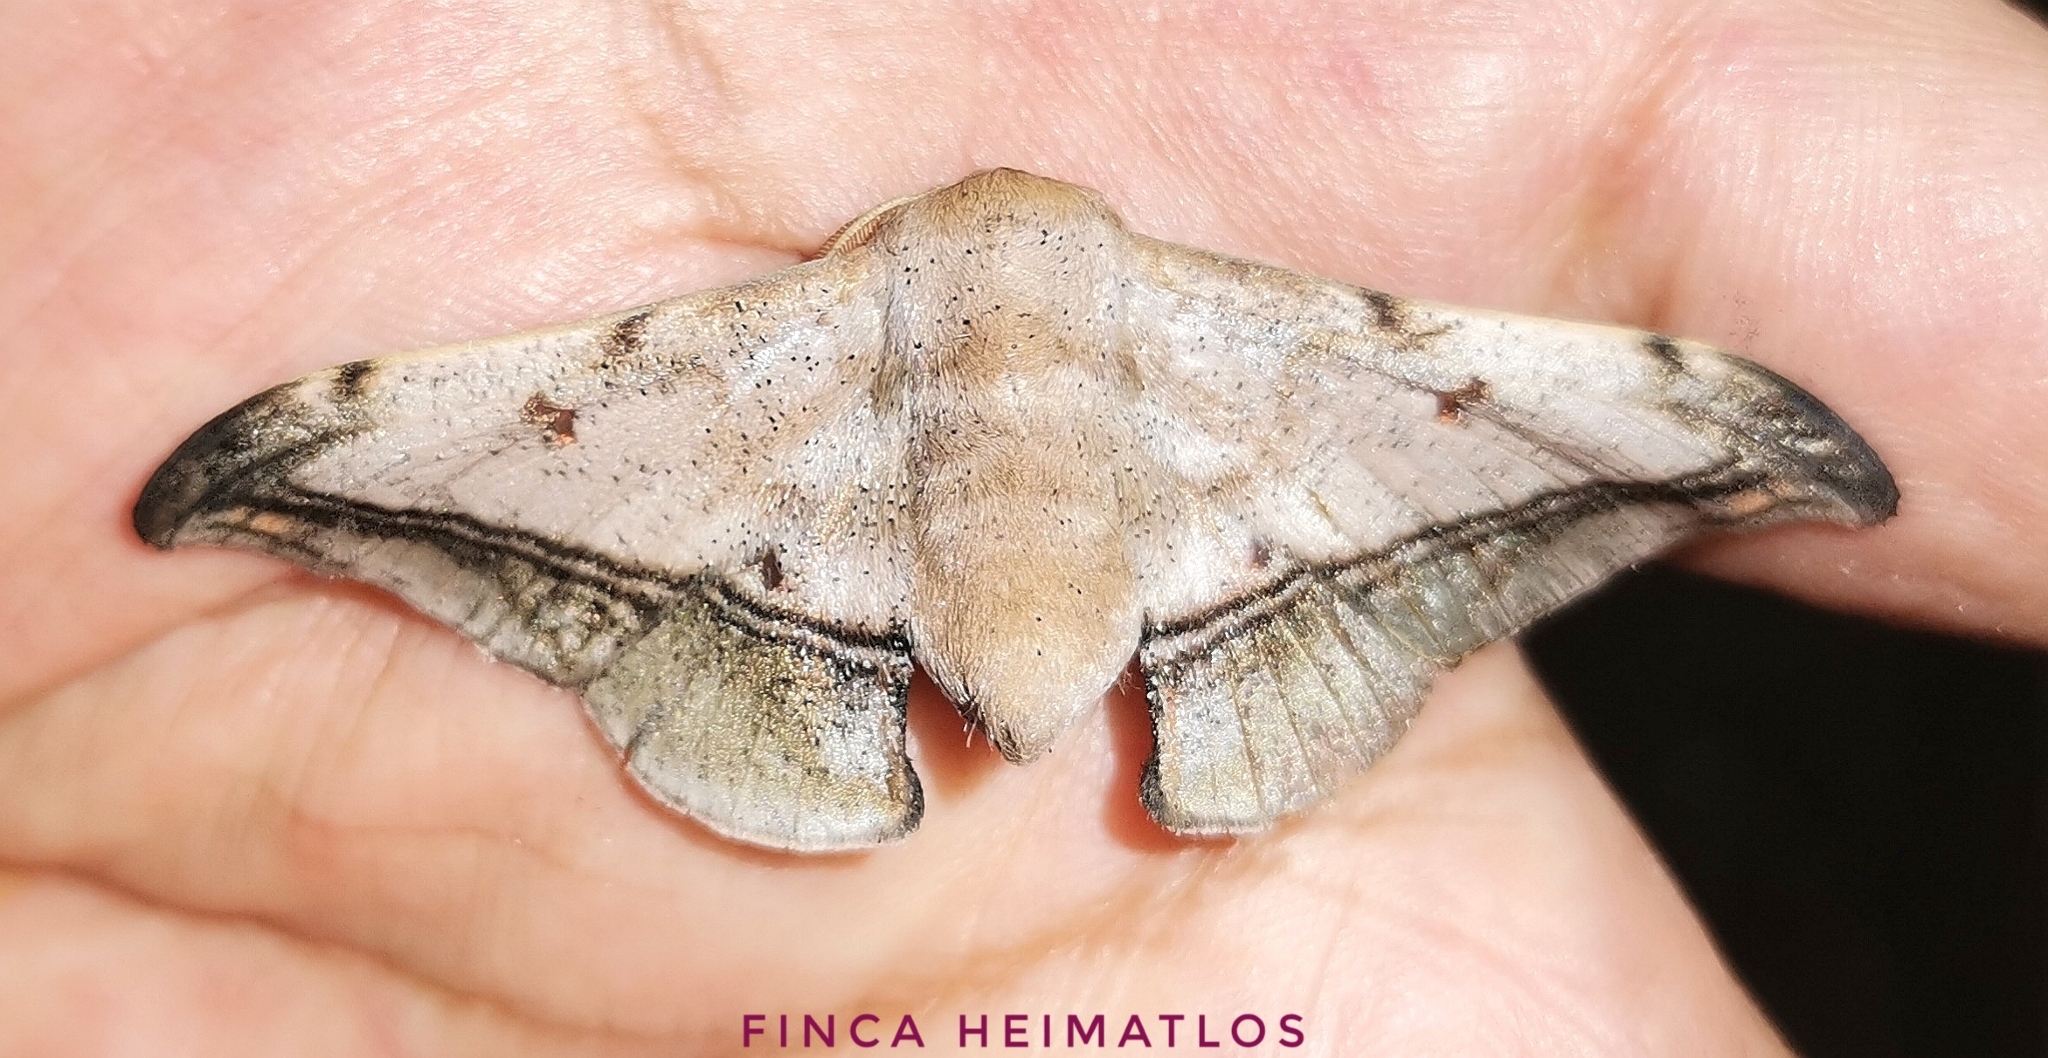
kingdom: Animalia
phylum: Arthropoda
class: Insecta
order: Lepidoptera
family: Mimallonidae
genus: Cicinnus
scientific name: Cicinnus fogia
